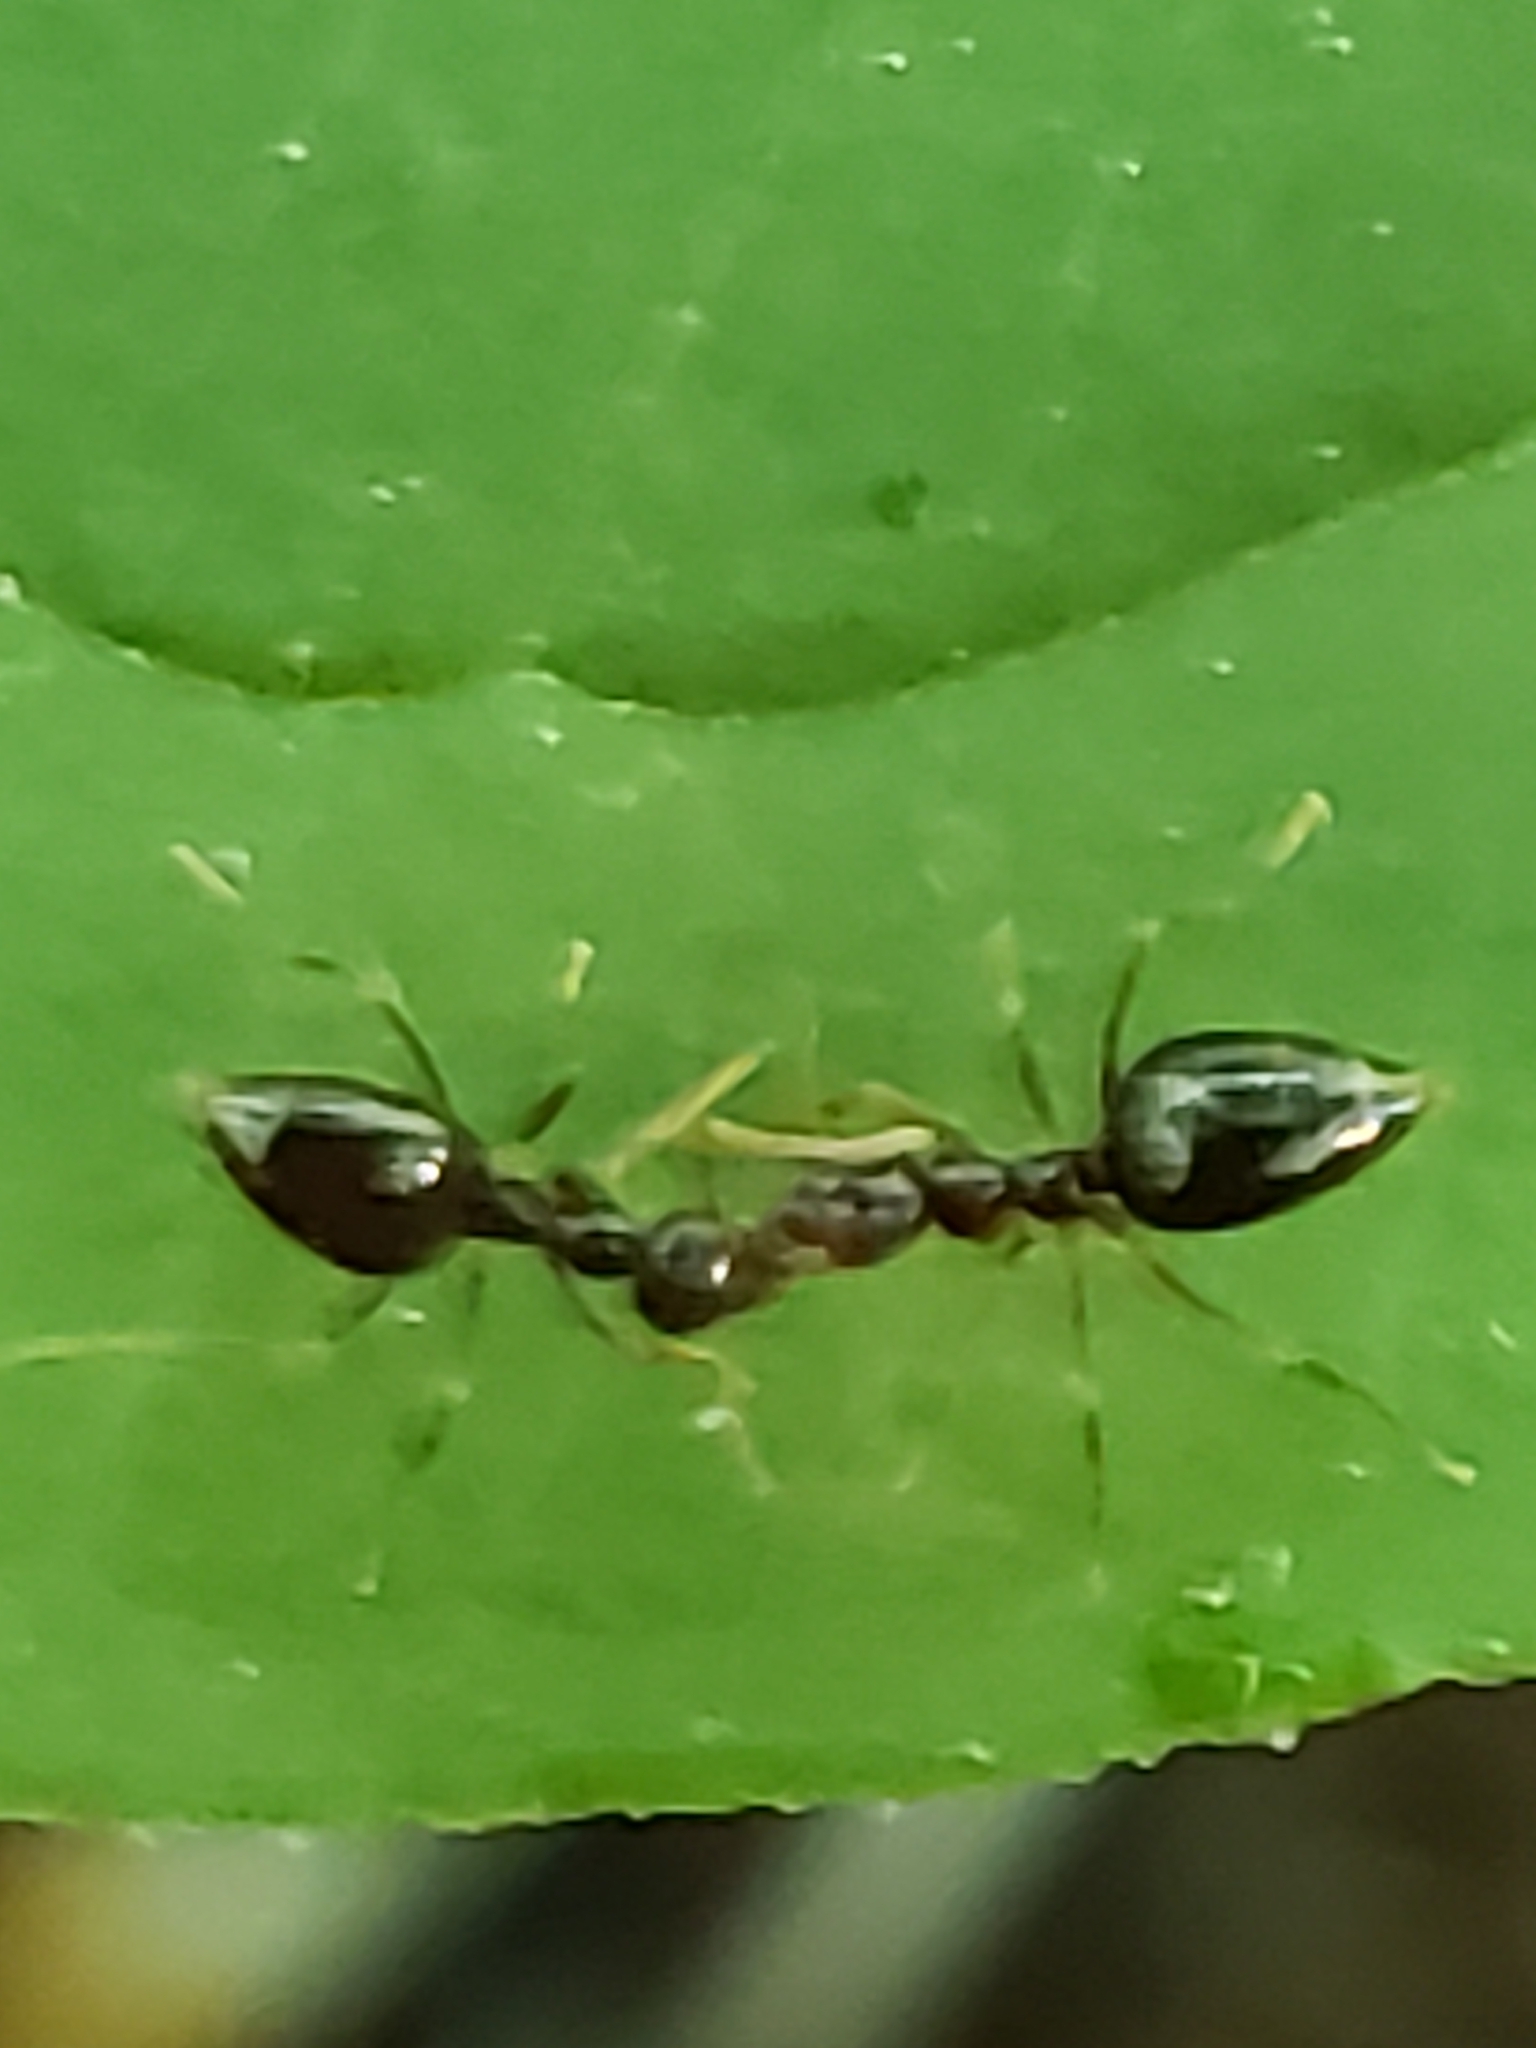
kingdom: Animalia
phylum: Arthropoda
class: Insecta
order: Hymenoptera
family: Formicidae
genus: Prenolepis
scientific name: Prenolepis imparis
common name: Small honey ant
